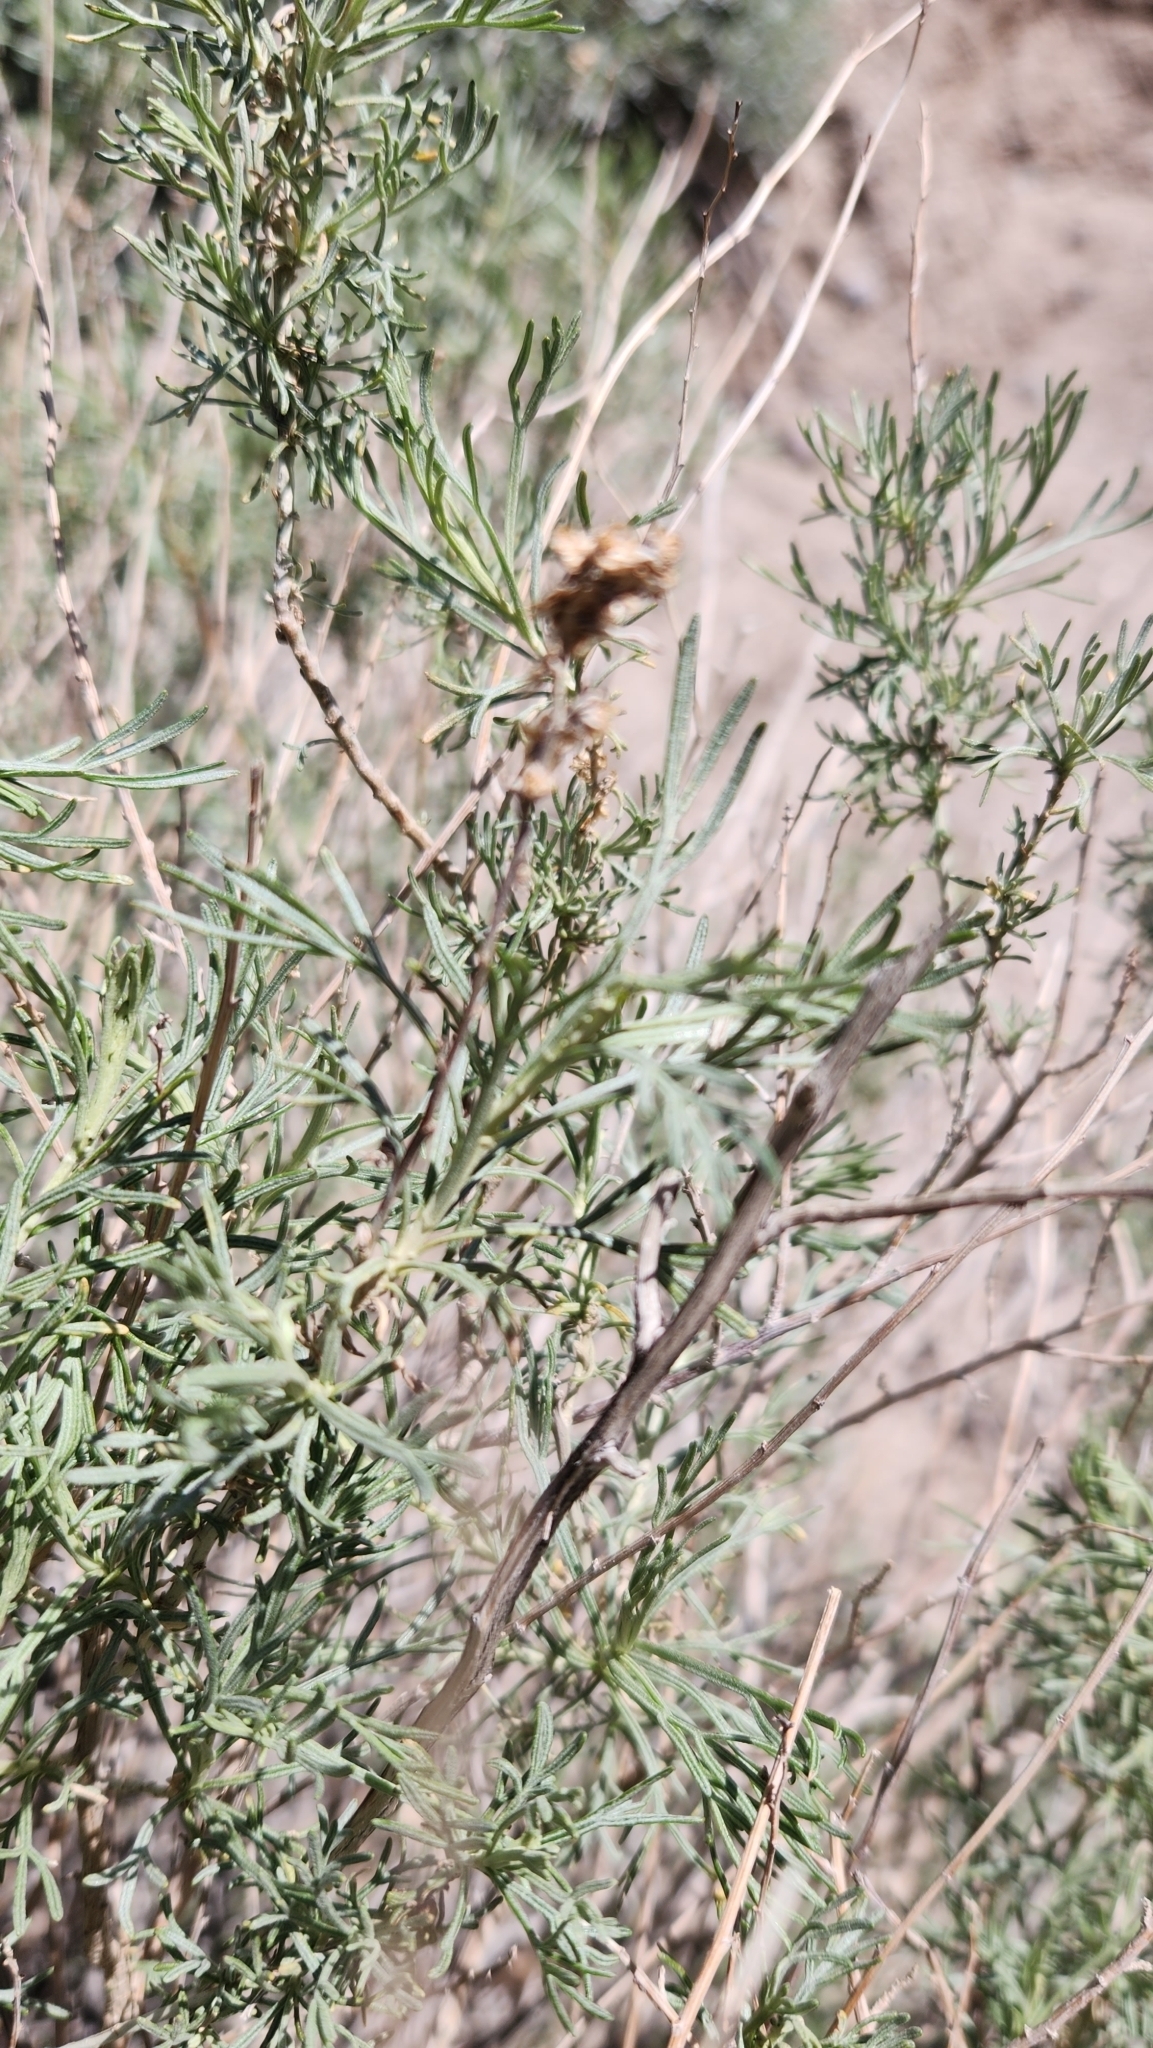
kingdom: Plantae
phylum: Tracheophyta
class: Magnoliopsida
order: Asterales
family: Asteraceae
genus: Artemisia
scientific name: Artemisia californica
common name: California sagebrush
